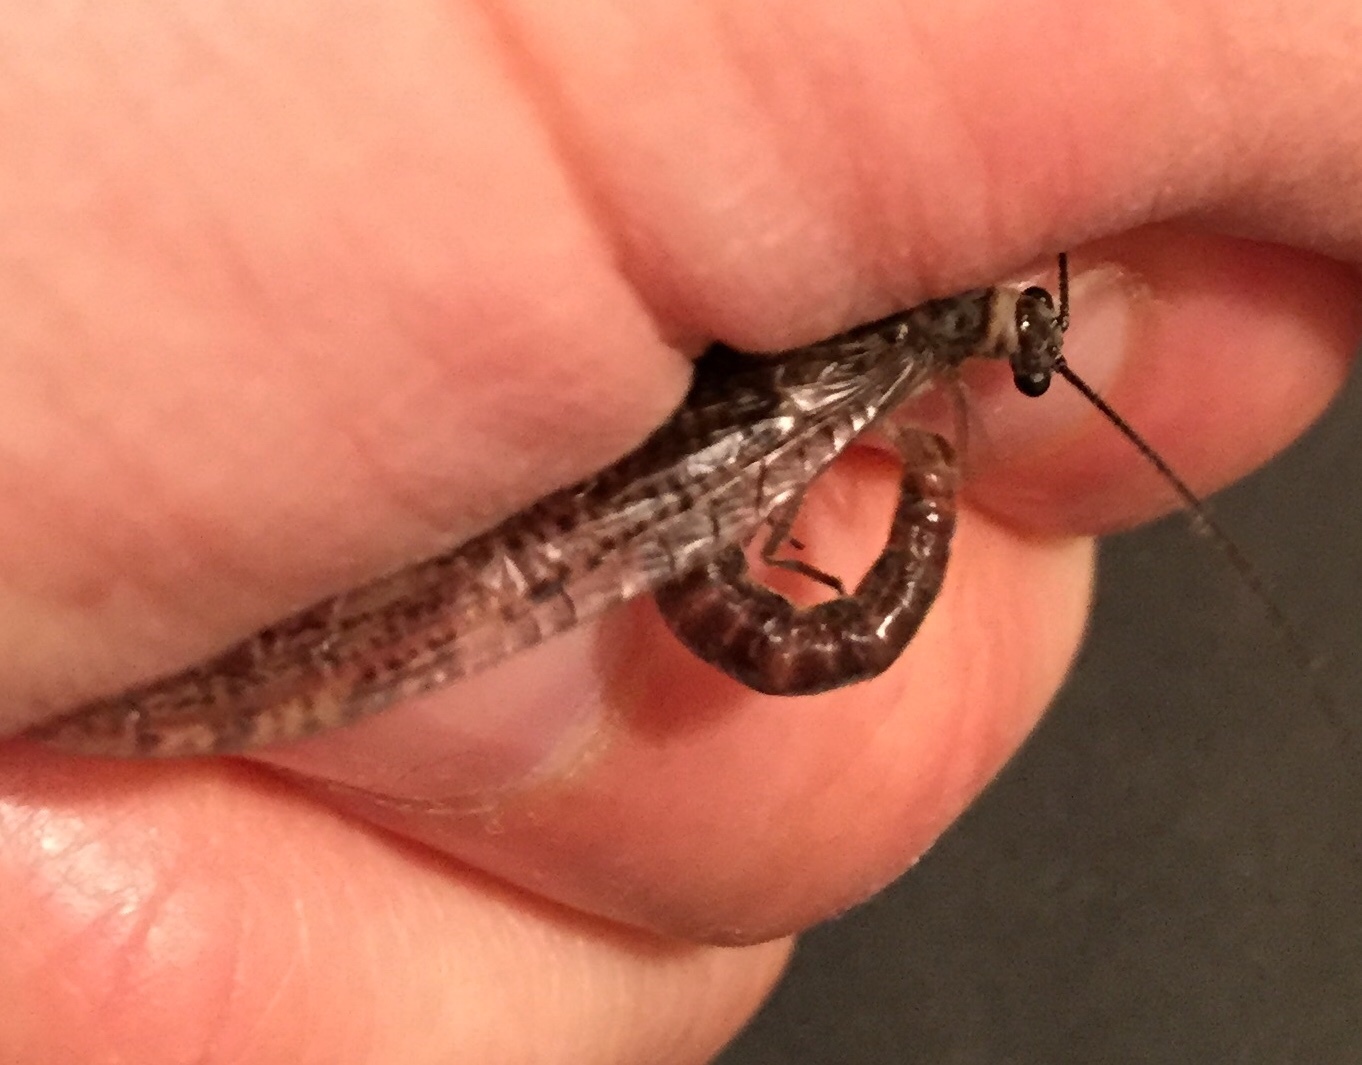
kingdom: Animalia
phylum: Arthropoda
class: Insecta
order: Megaloptera
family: Corydalidae
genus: Archichauliodes
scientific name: Archichauliodes diversus
